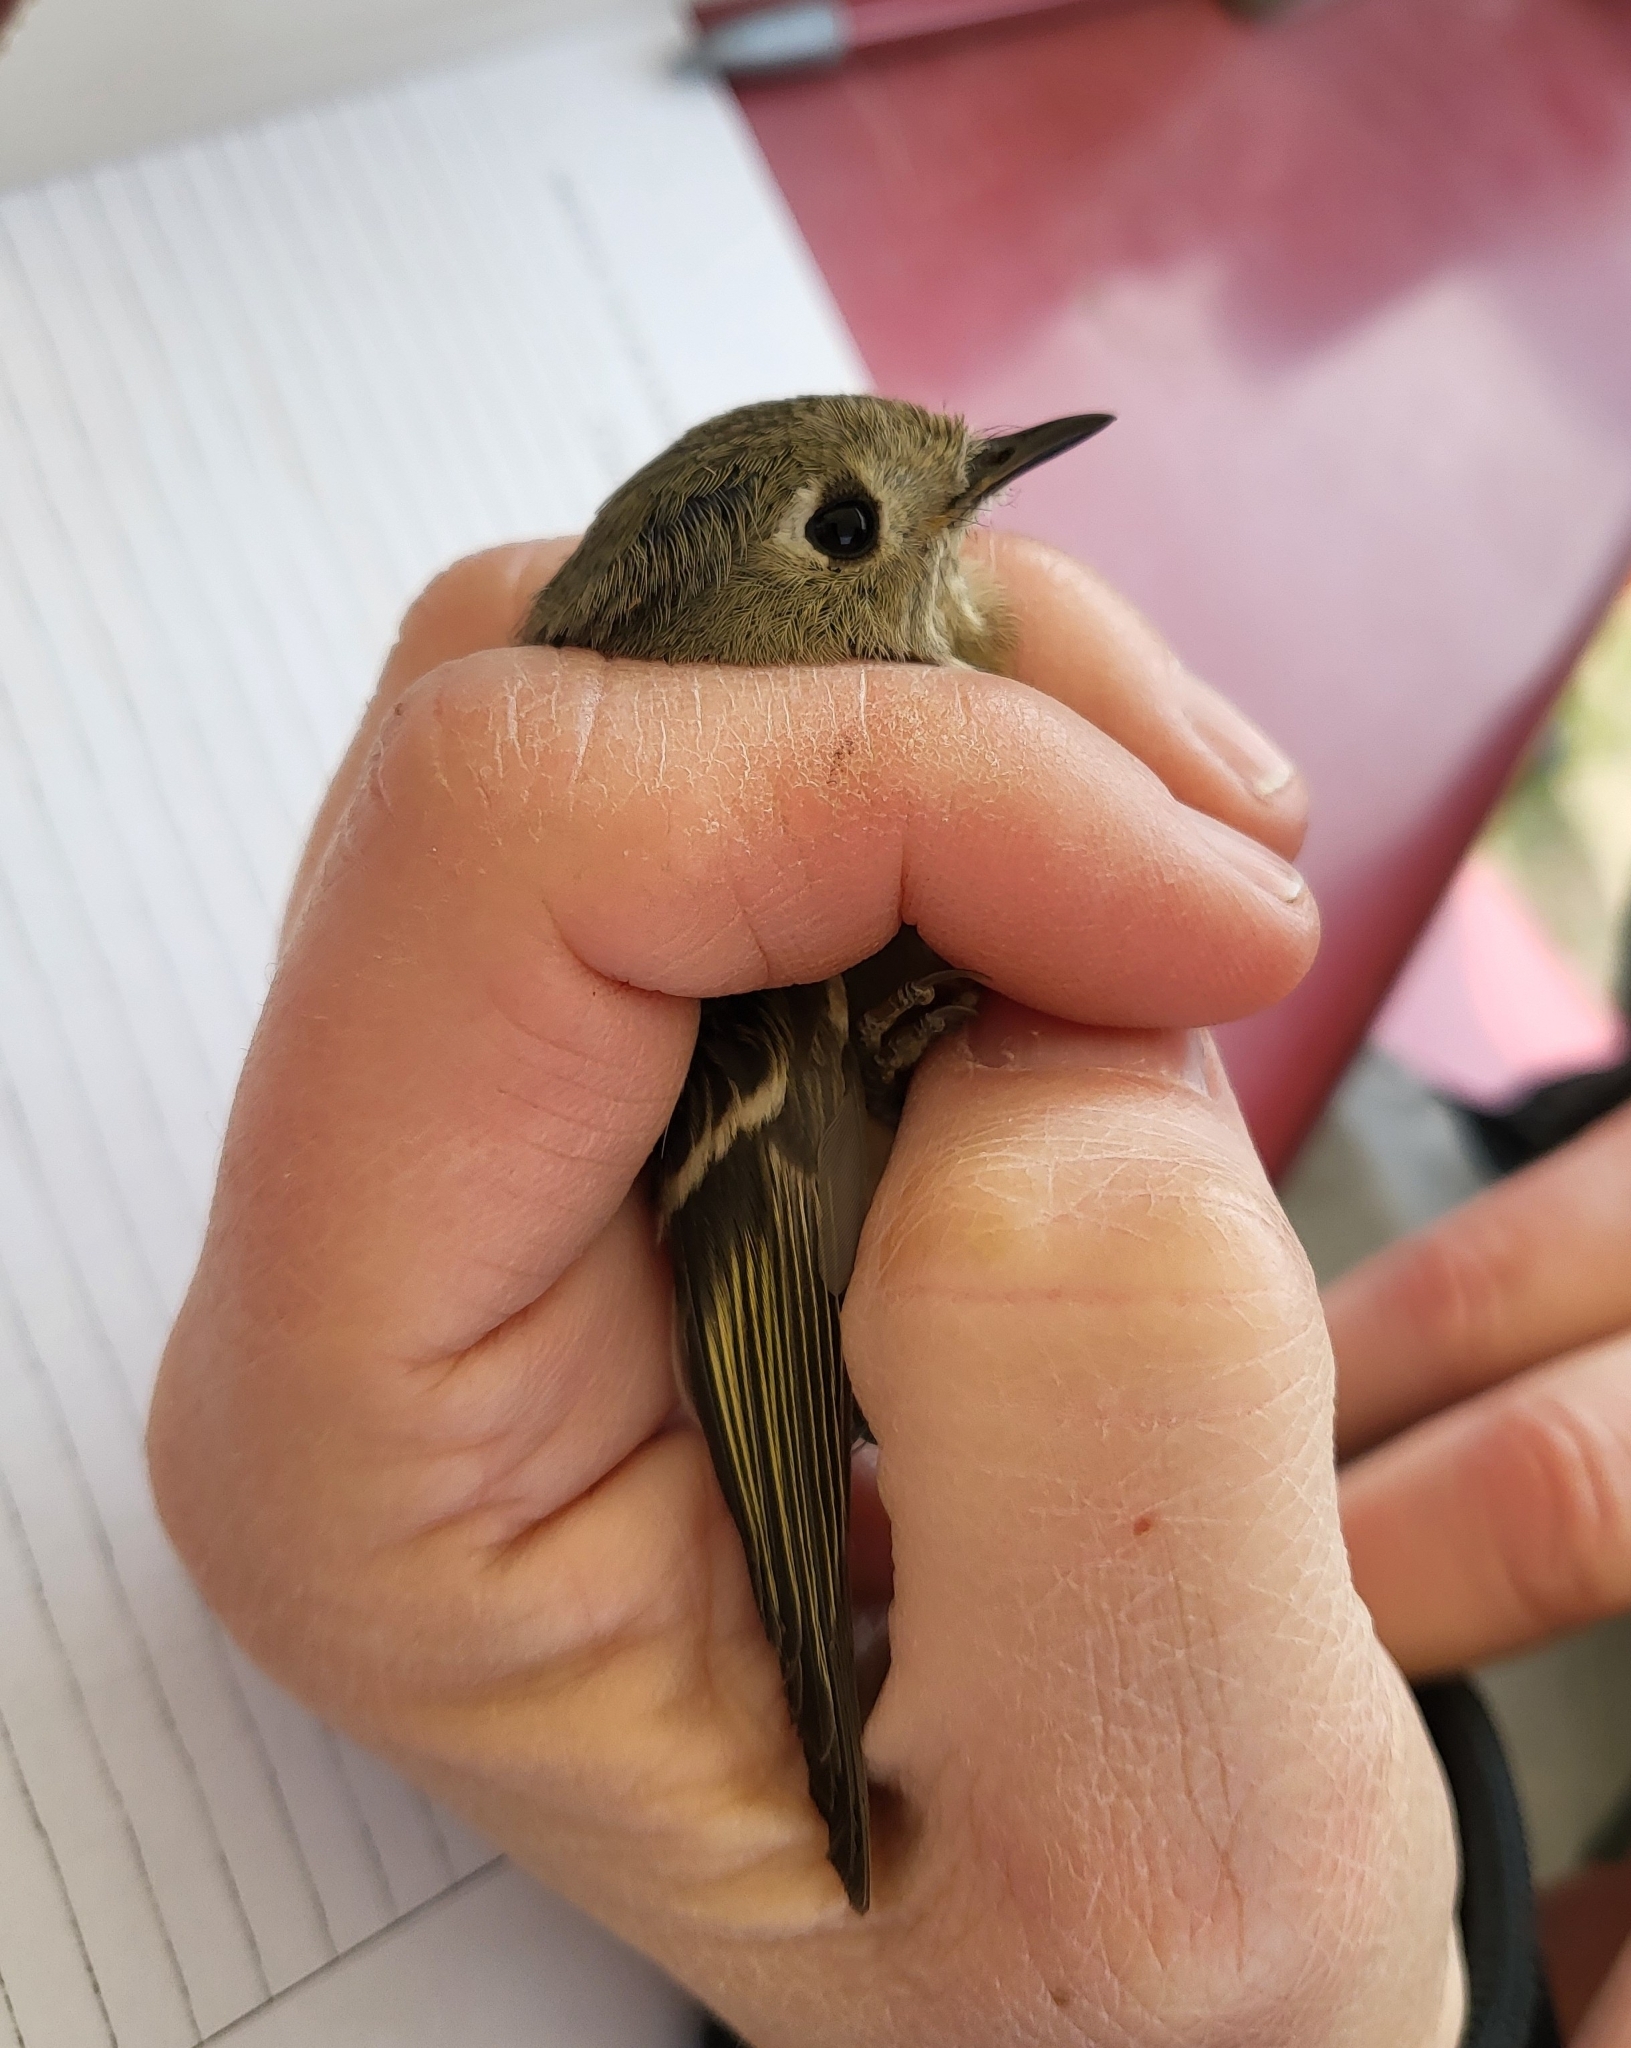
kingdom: Animalia
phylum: Chordata
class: Aves
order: Passeriformes
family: Regulidae
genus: Regulus
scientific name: Regulus calendula
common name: Ruby-crowned kinglet
